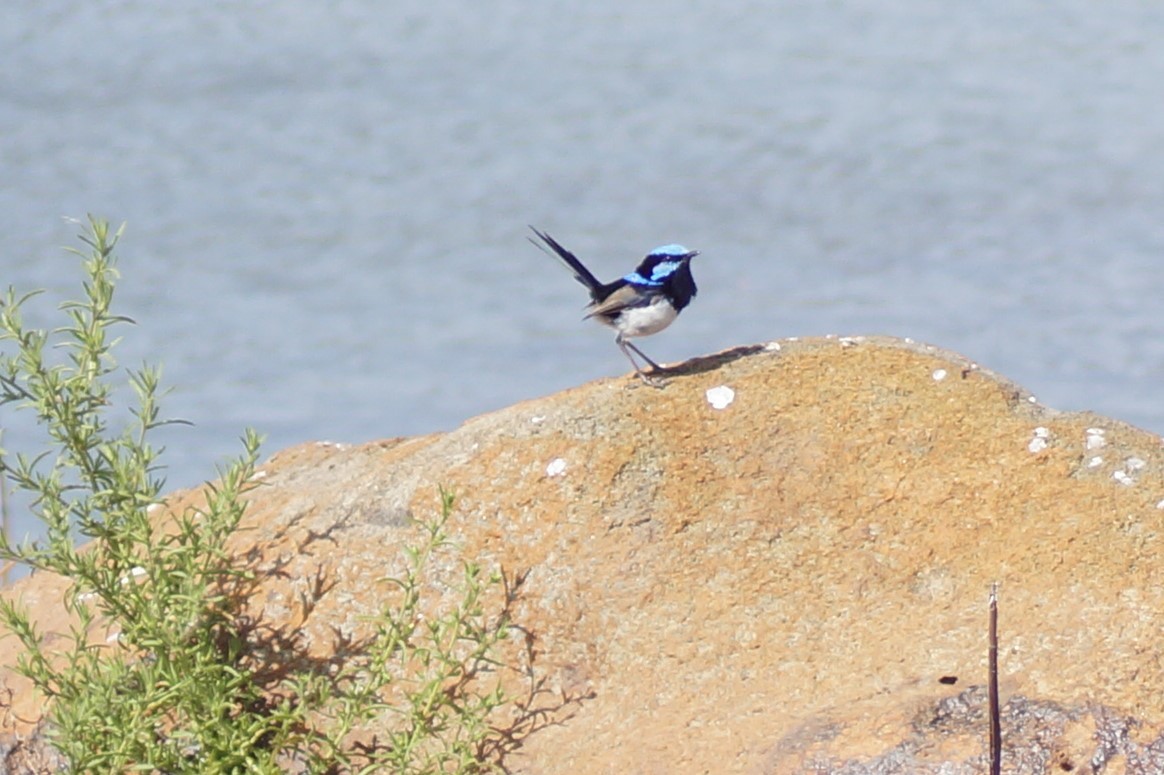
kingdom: Animalia
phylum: Chordata
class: Aves
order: Passeriformes
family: Maluridae
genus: Malurus
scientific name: Malurus cyaneus
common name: Superb fairywren
